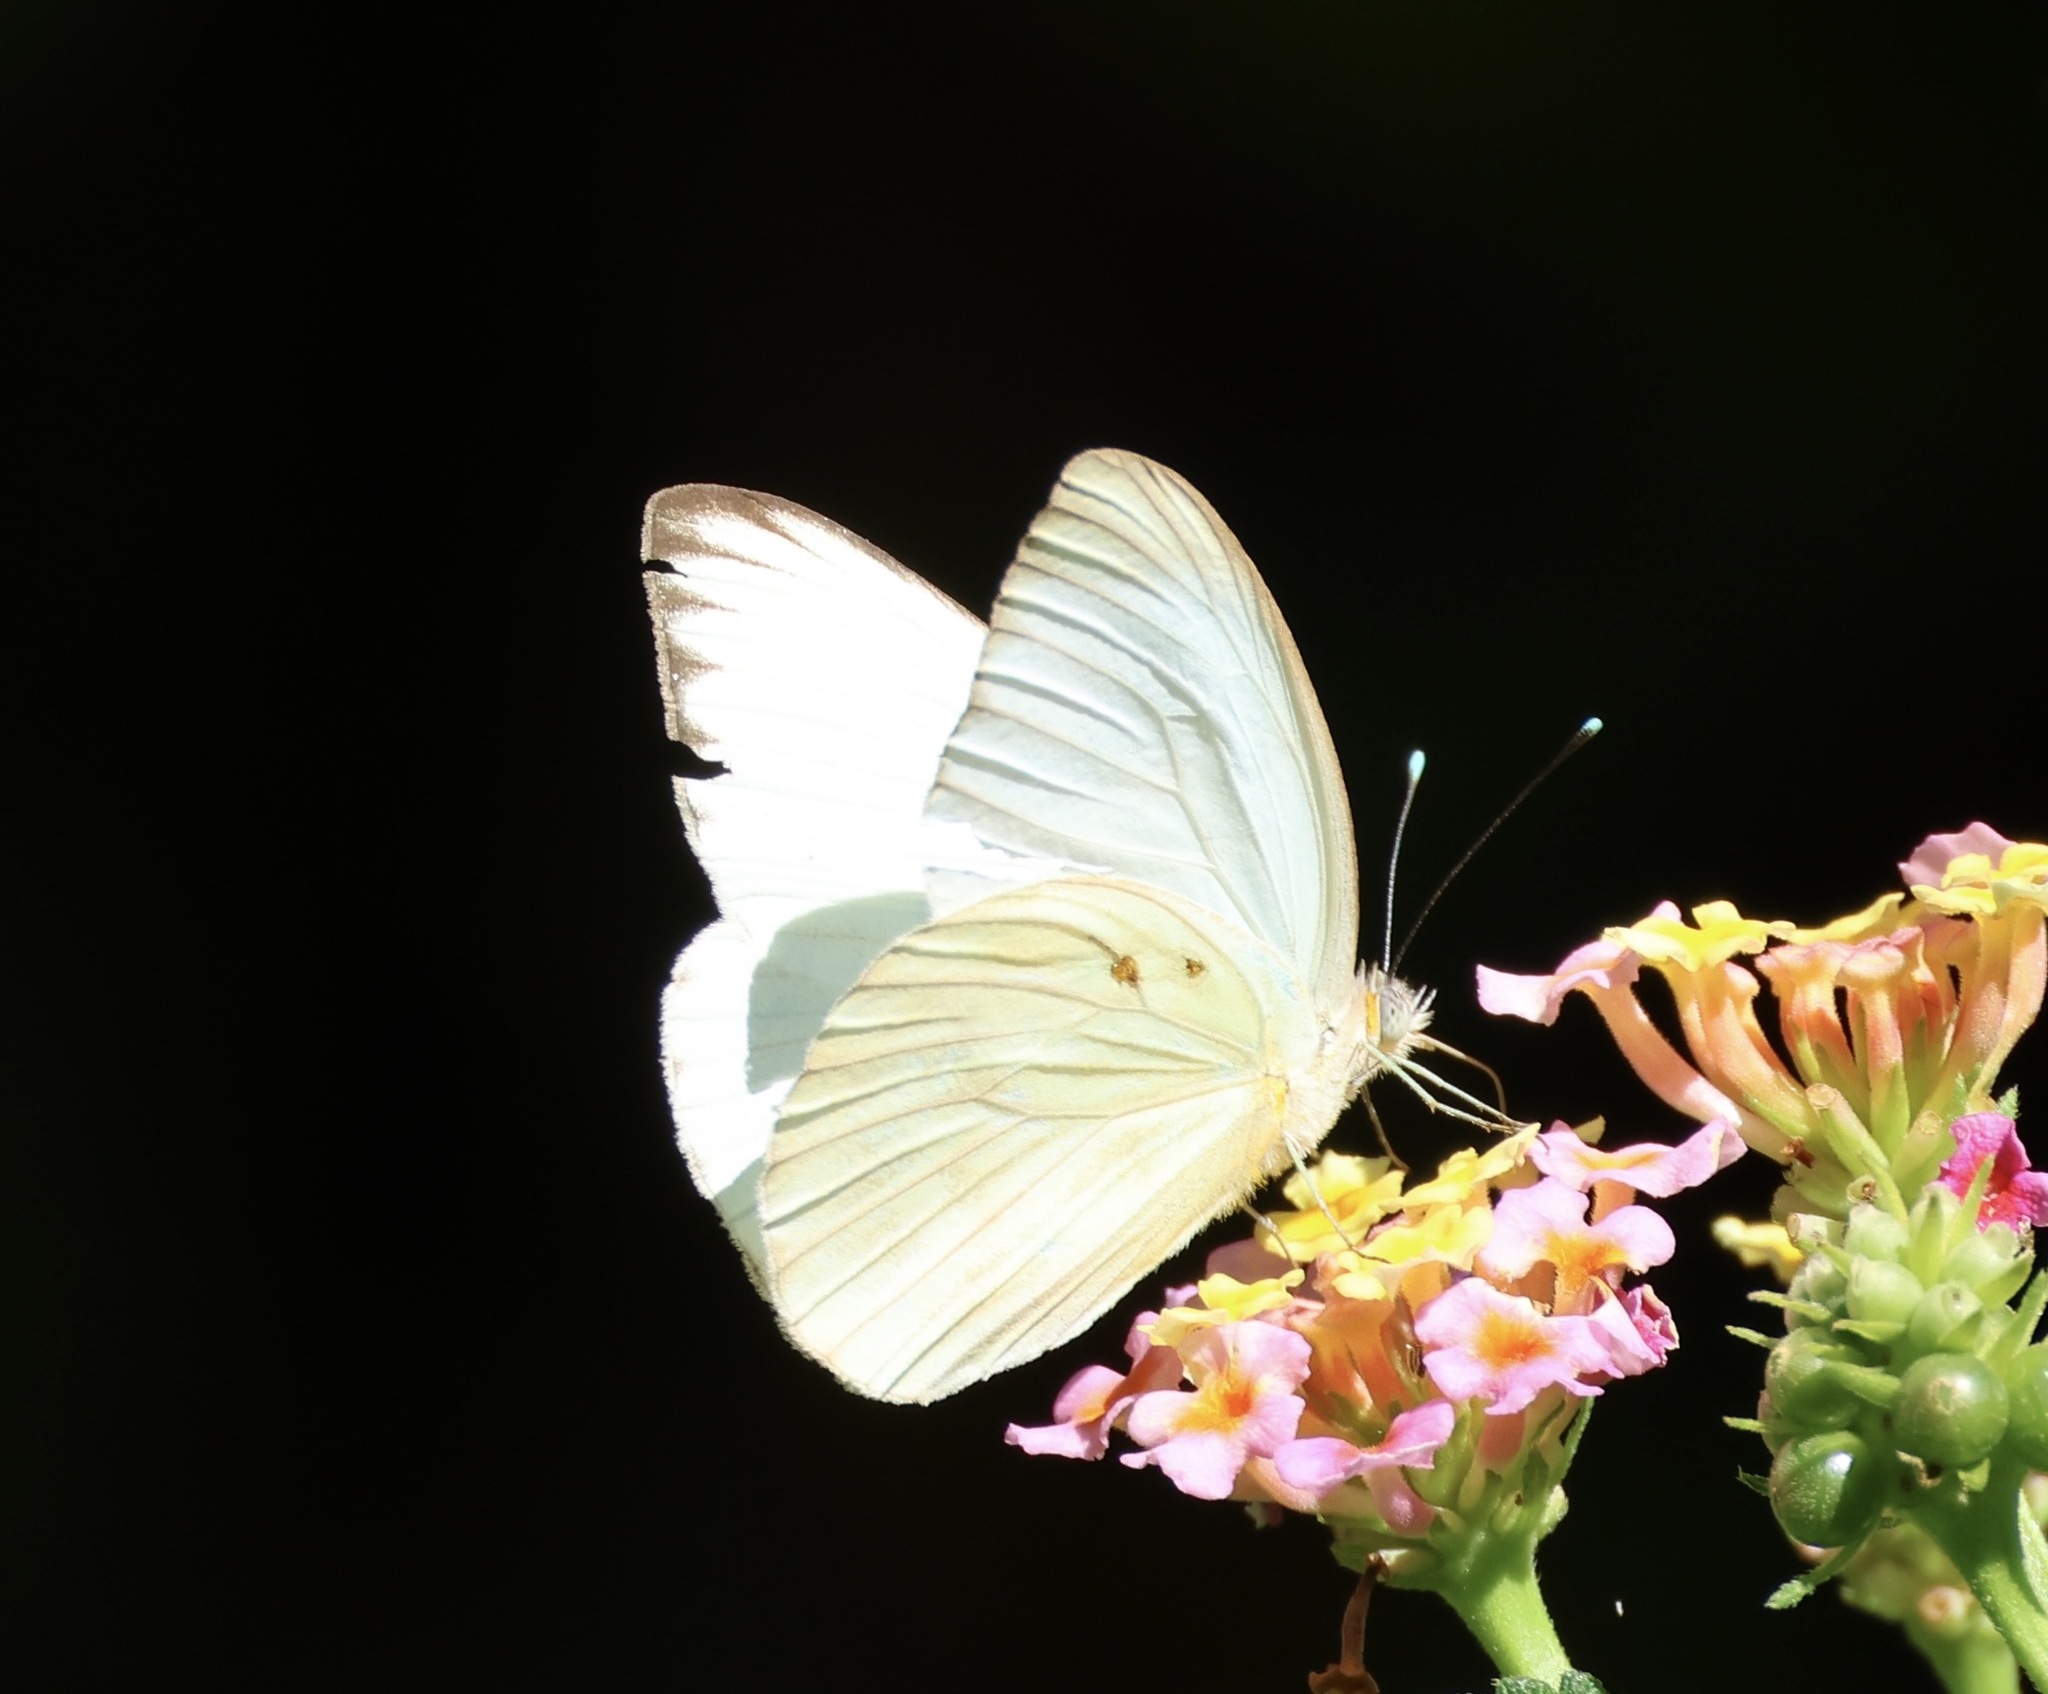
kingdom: Animalia
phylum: Arthropoda
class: Insecta
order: Lepidoptera
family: Pieridae
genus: Ascia
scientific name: Ascia monuste
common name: Great southern white
